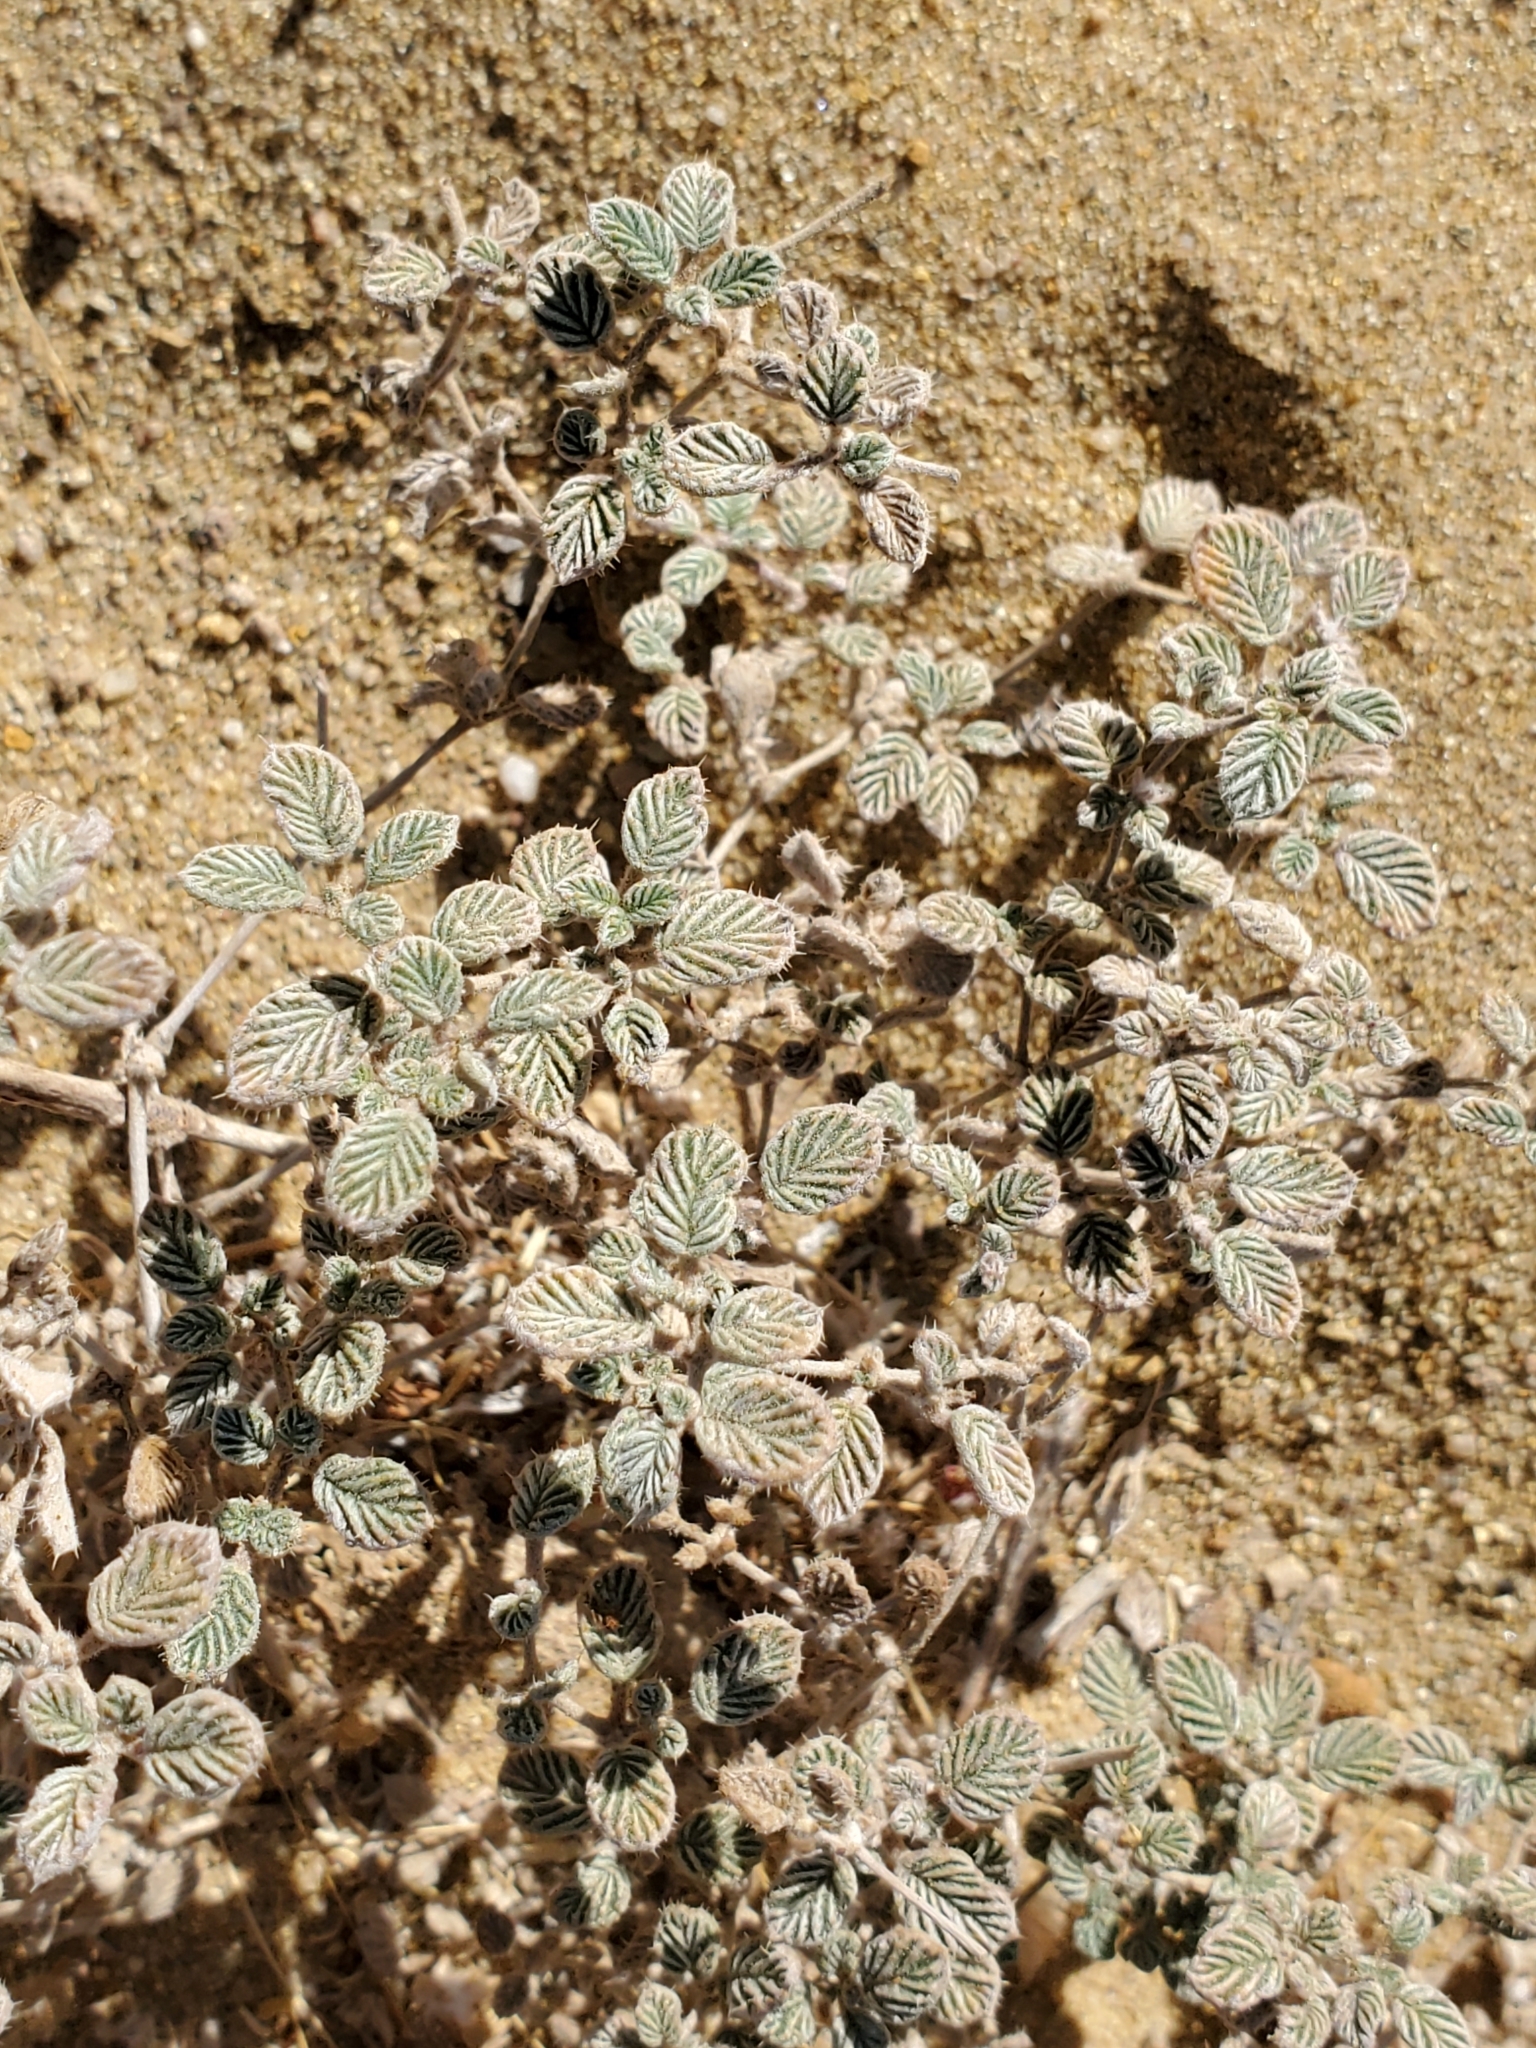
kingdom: Plantae
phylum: Tracheophyta
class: Magnoliopsida
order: Boraginales
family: Ehretiaceae
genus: Tiquilia
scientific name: Tiquilia plicata
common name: Fan-leaf tiquilia
